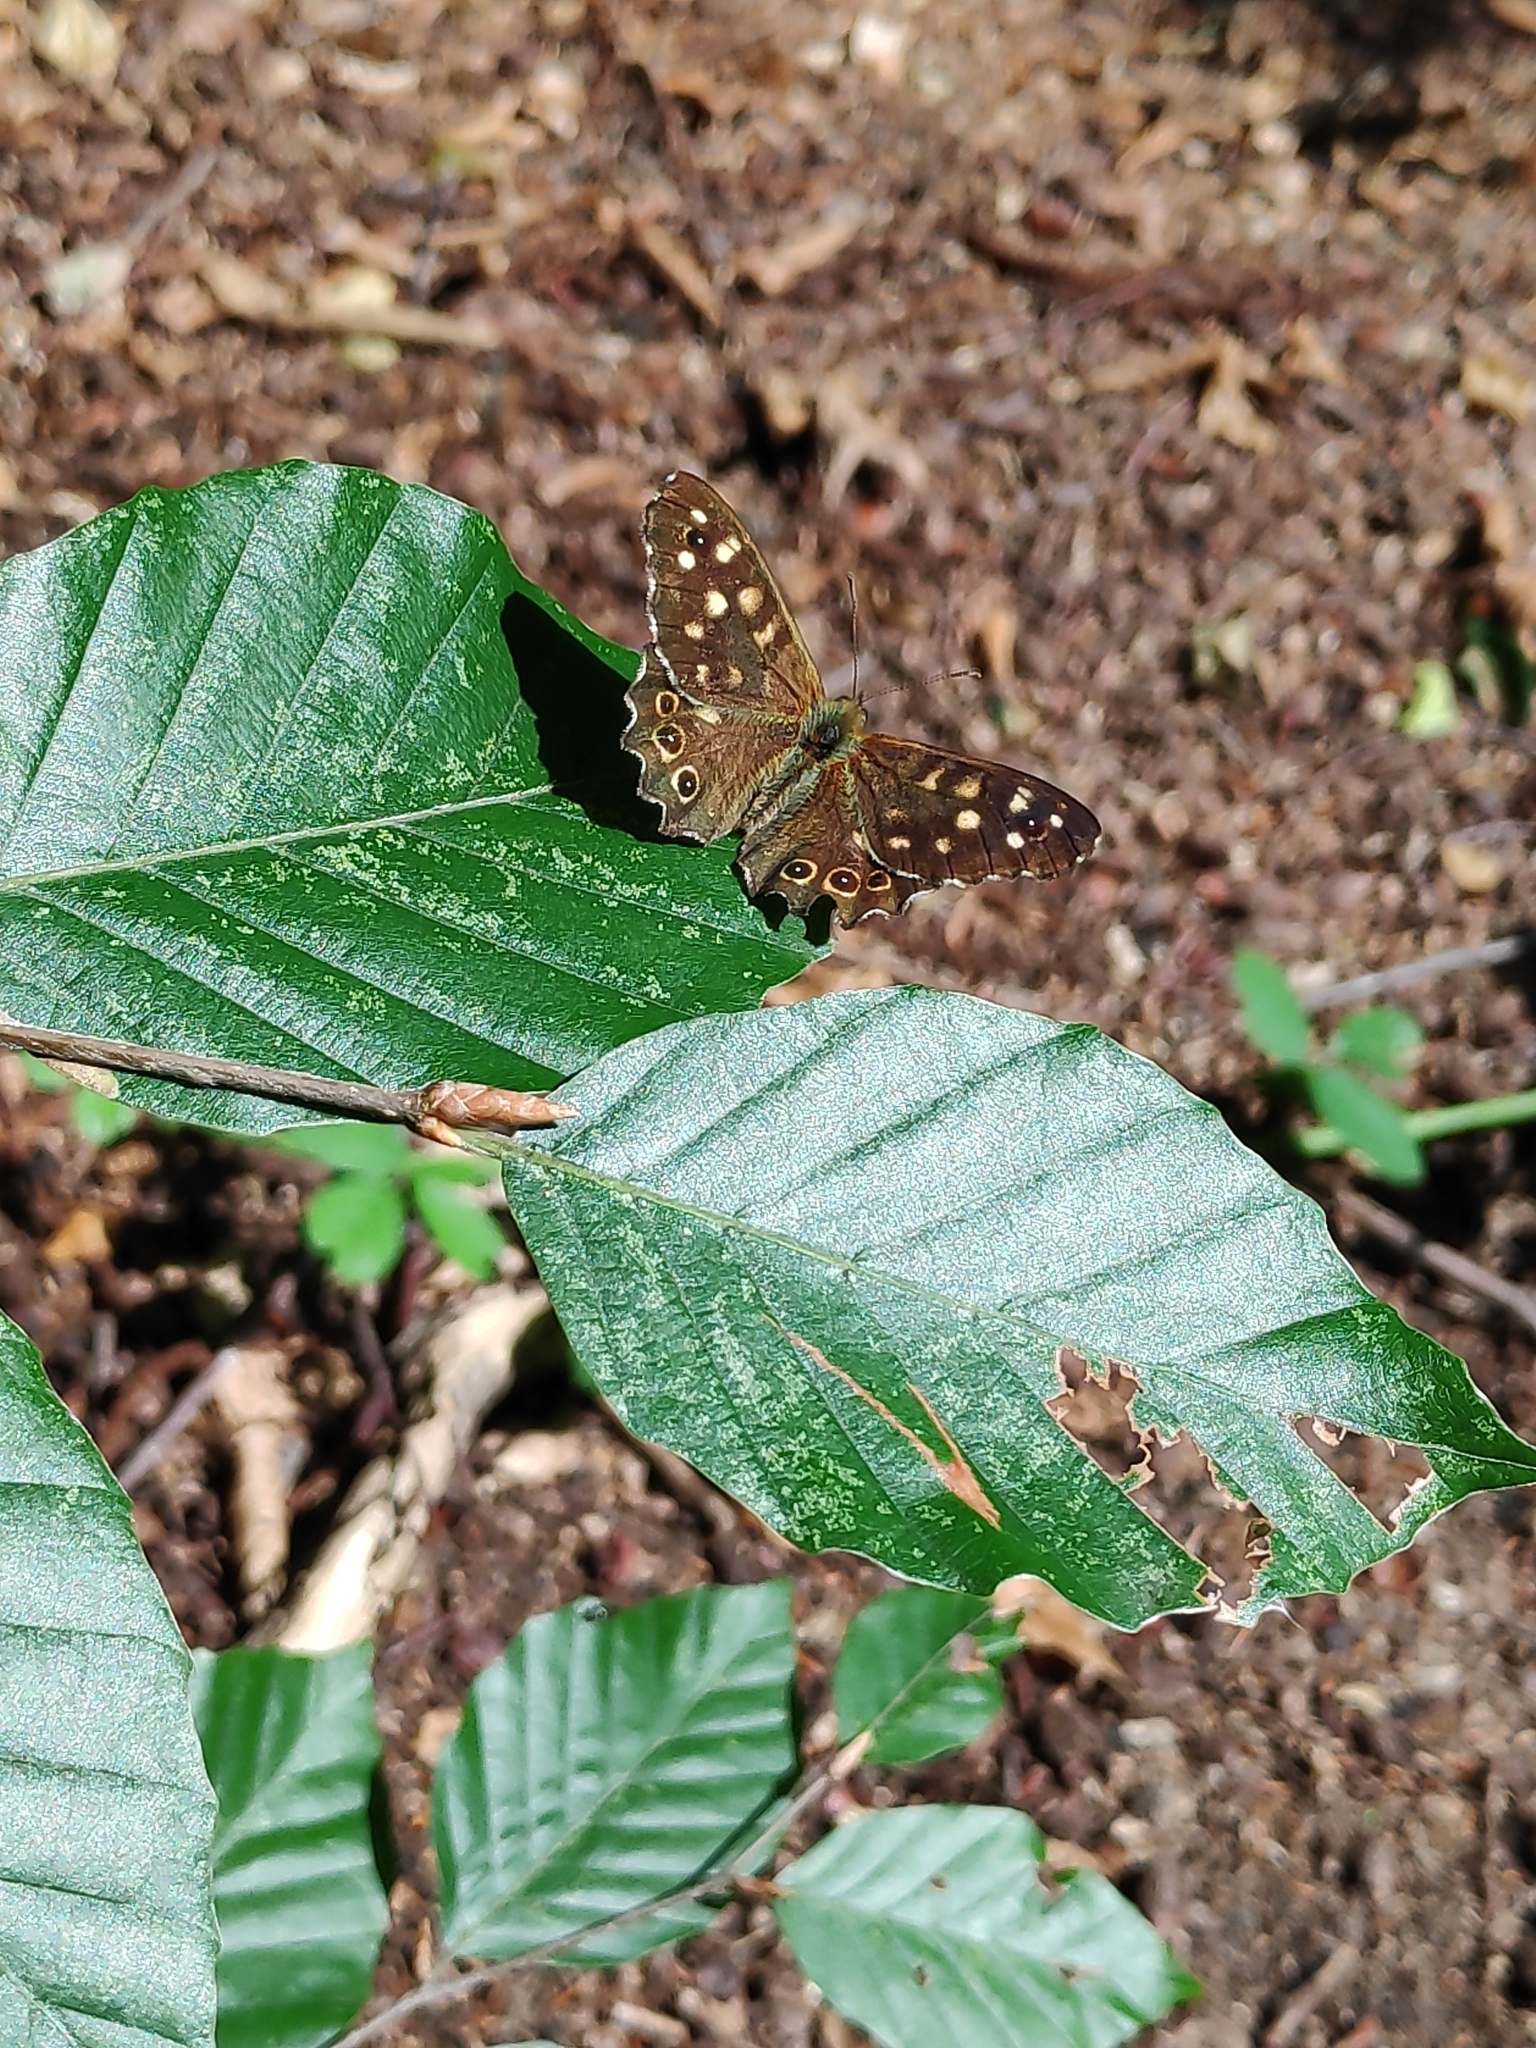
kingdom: Animalia
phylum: Arthropoda
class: Insecta
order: Lepidoptera
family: Nymphalidae
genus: Pararge
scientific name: Pararge aegeria
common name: Speckled wood
